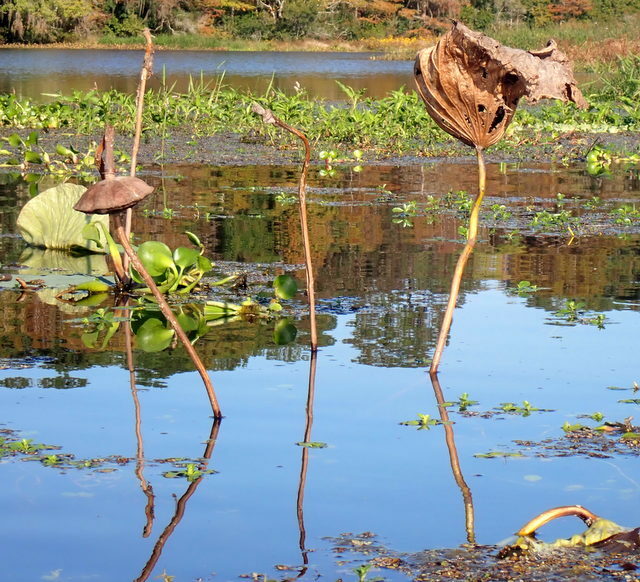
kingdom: Plantae
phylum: Tracheophyta
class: Magnoliopsida
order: Proteales
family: Nelumbonaceae
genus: Nelumbo
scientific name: Nelumbo lutea
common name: American lotus
